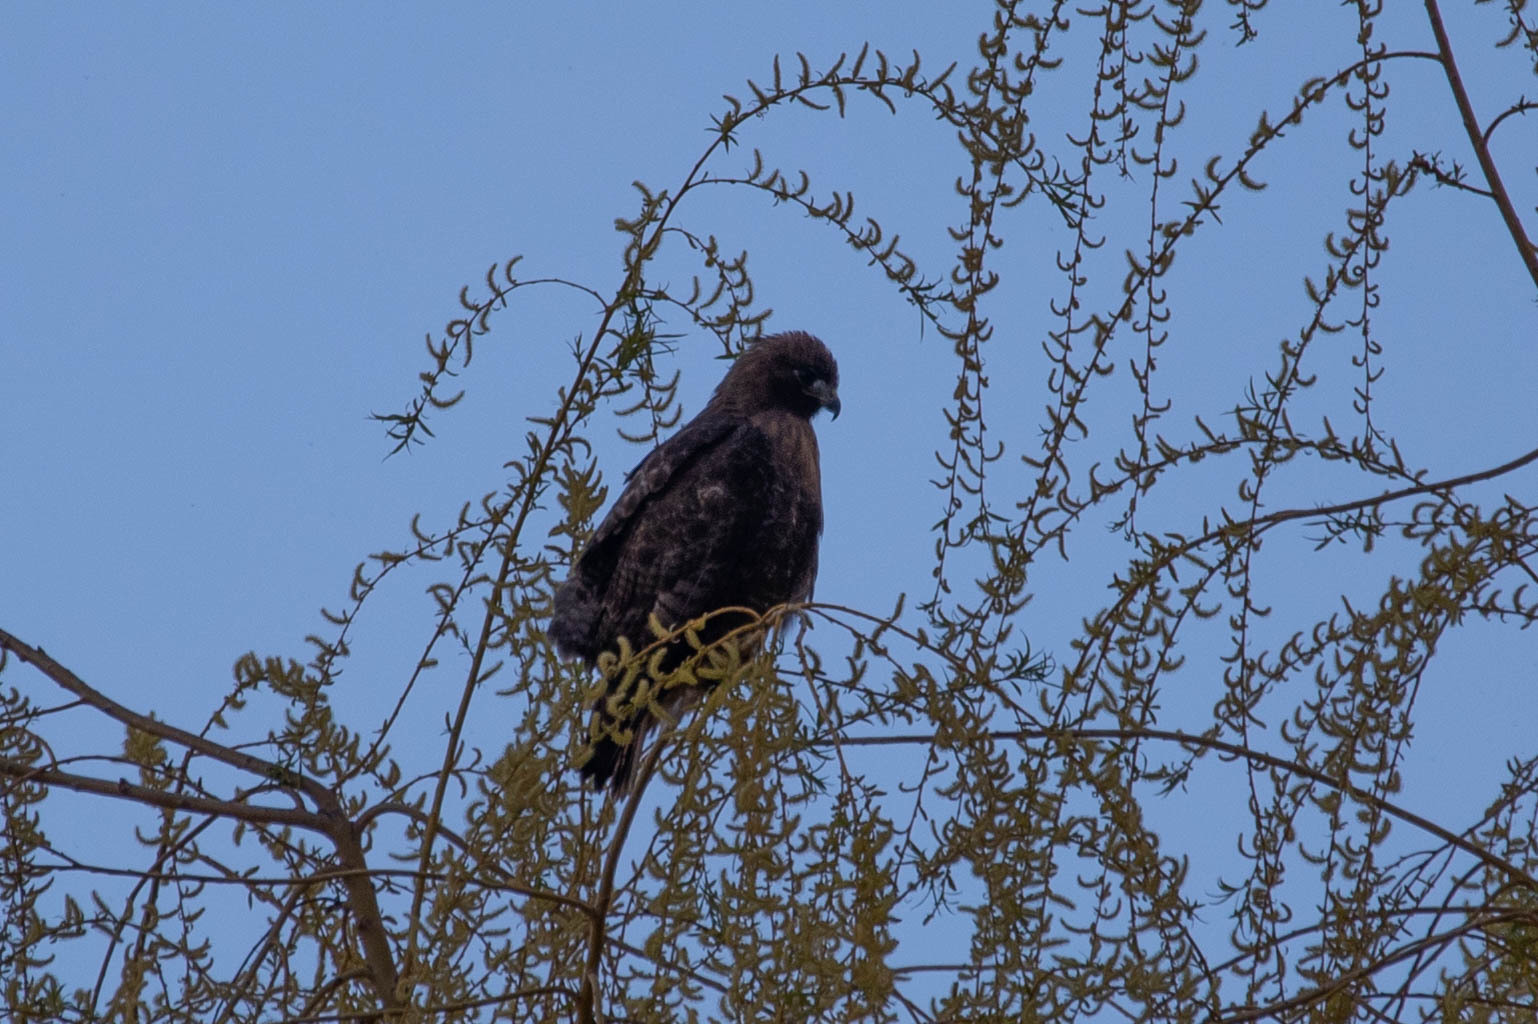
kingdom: Animalia
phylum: Chordata
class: Aves
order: Accipitriformes
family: Accipitridae
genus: Buteo
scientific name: Buteo jamaicensis
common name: Red-tailed hawk
